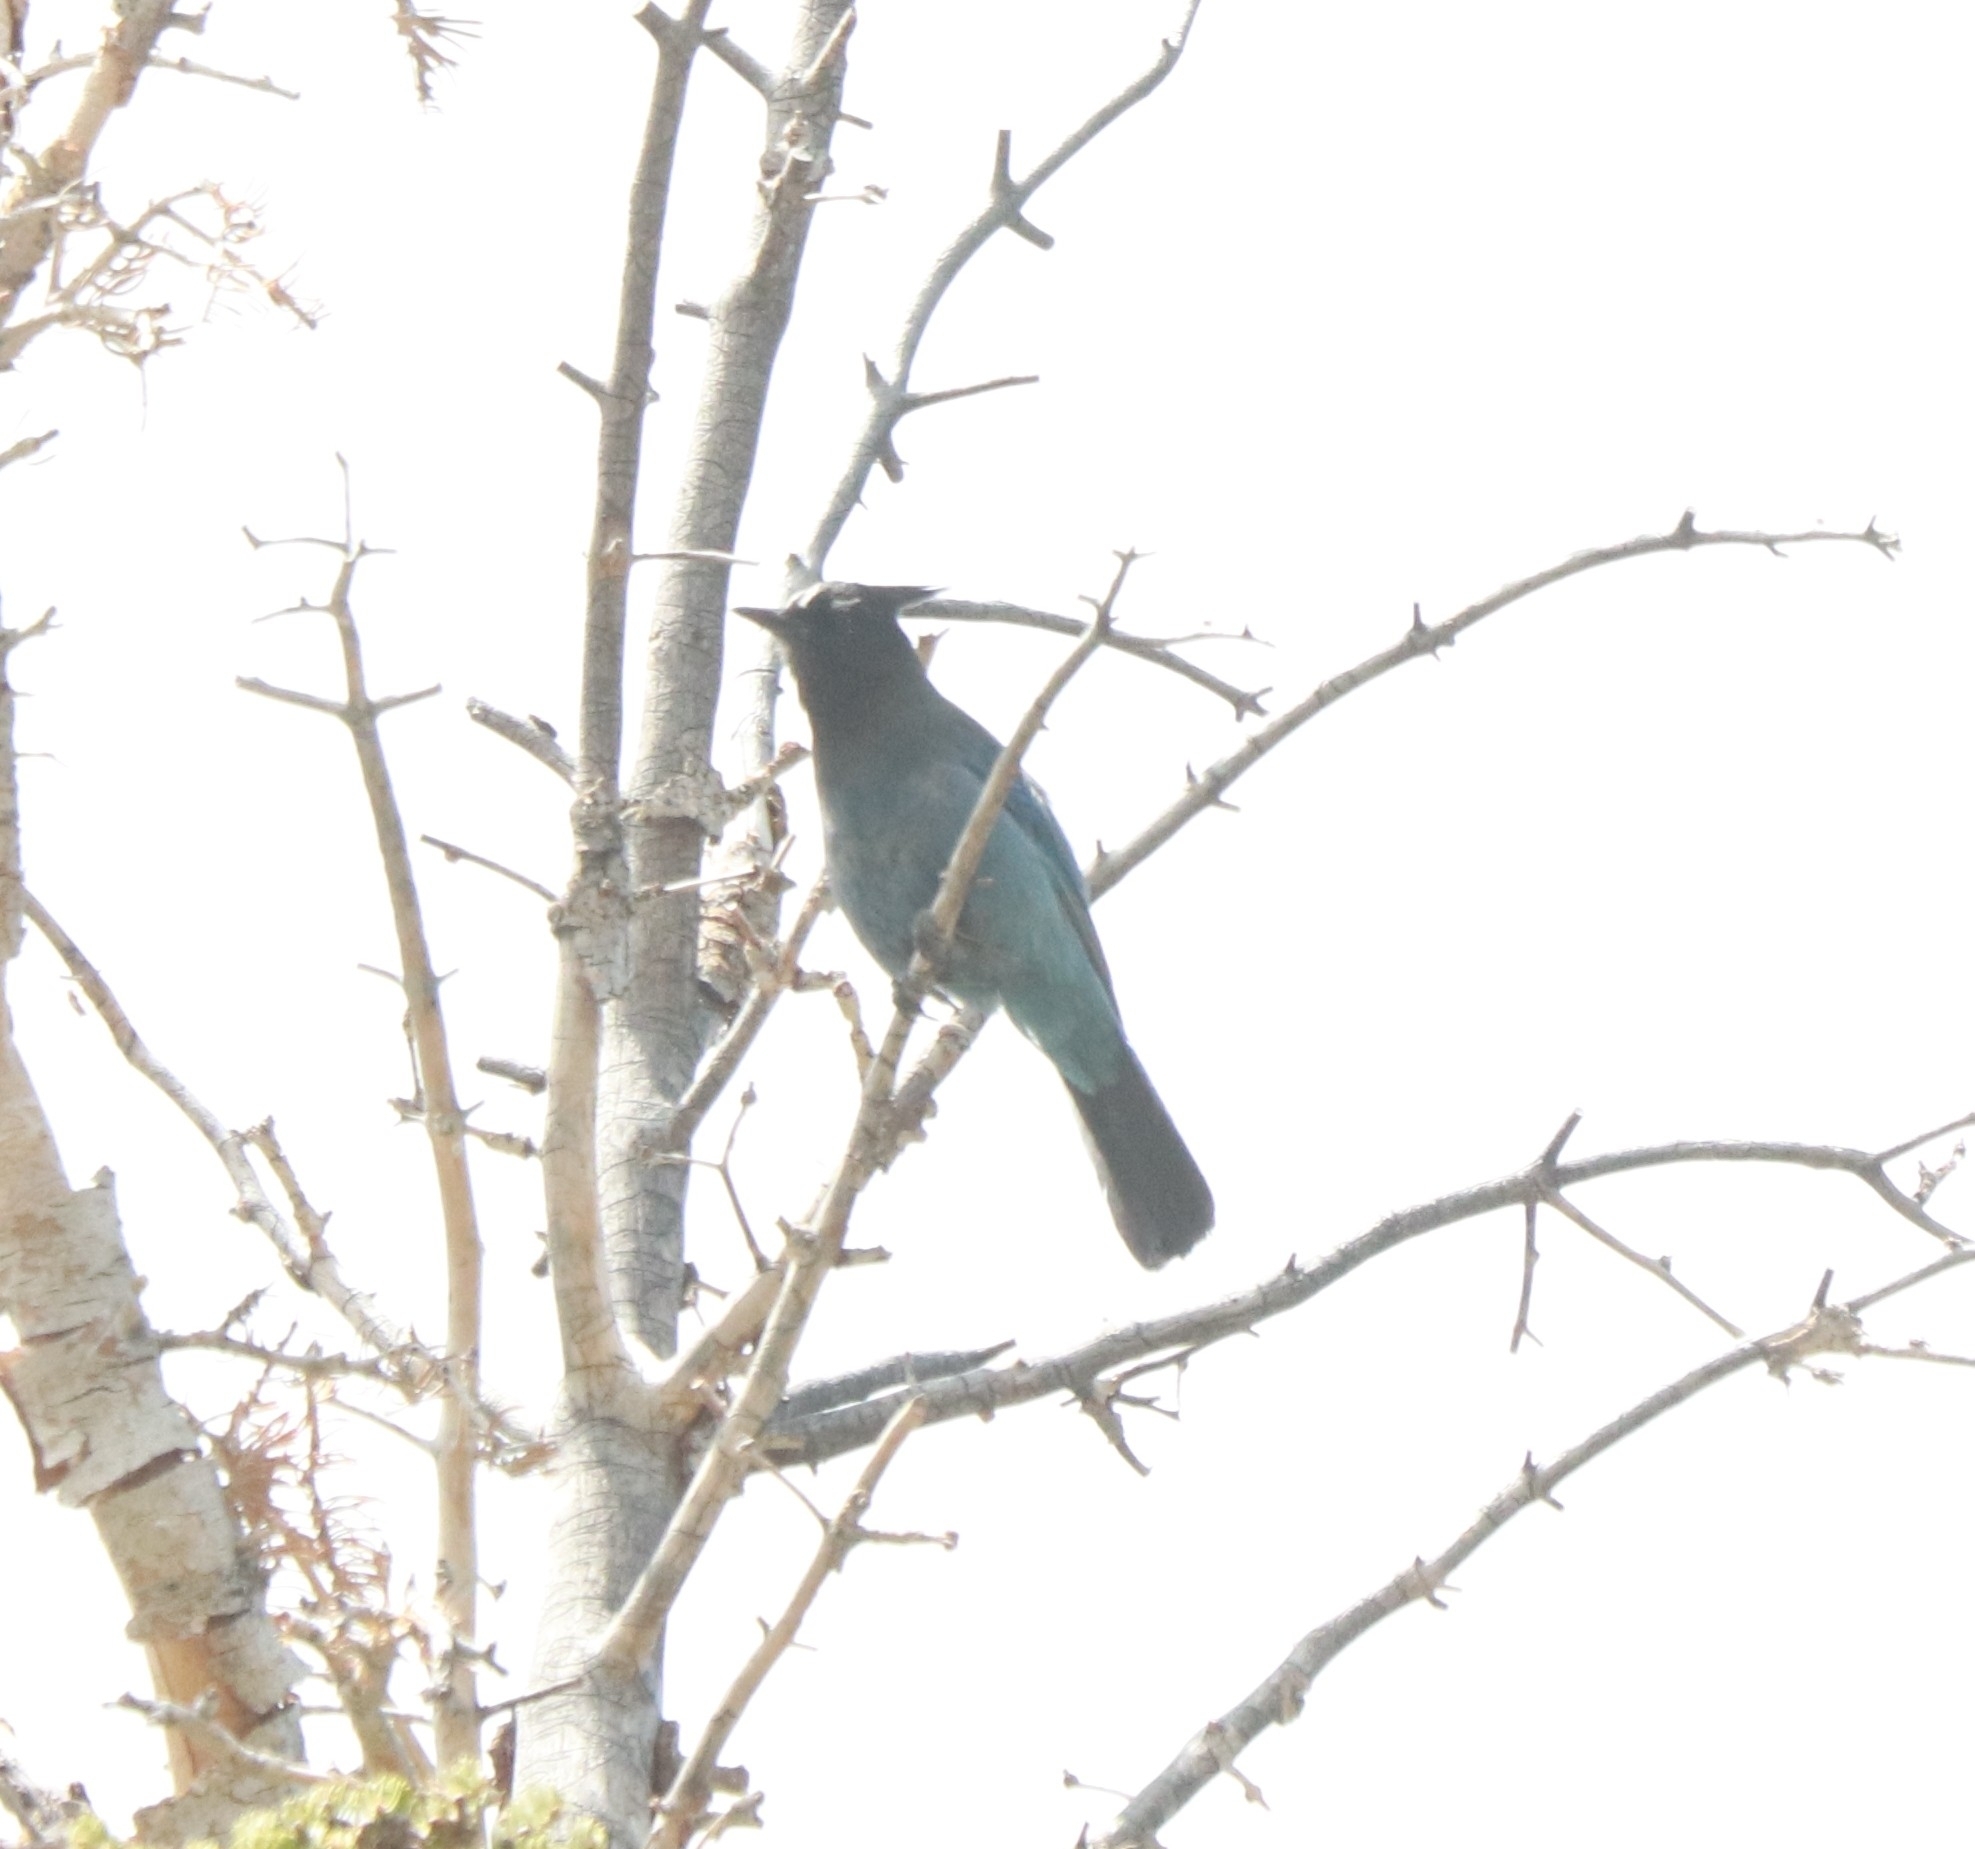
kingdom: Animalia
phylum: Chordata
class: Aves
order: Passeriformes
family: Corvidae
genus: Cyanocitta
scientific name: Cyanocitta stelleri
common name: Steller's jay
